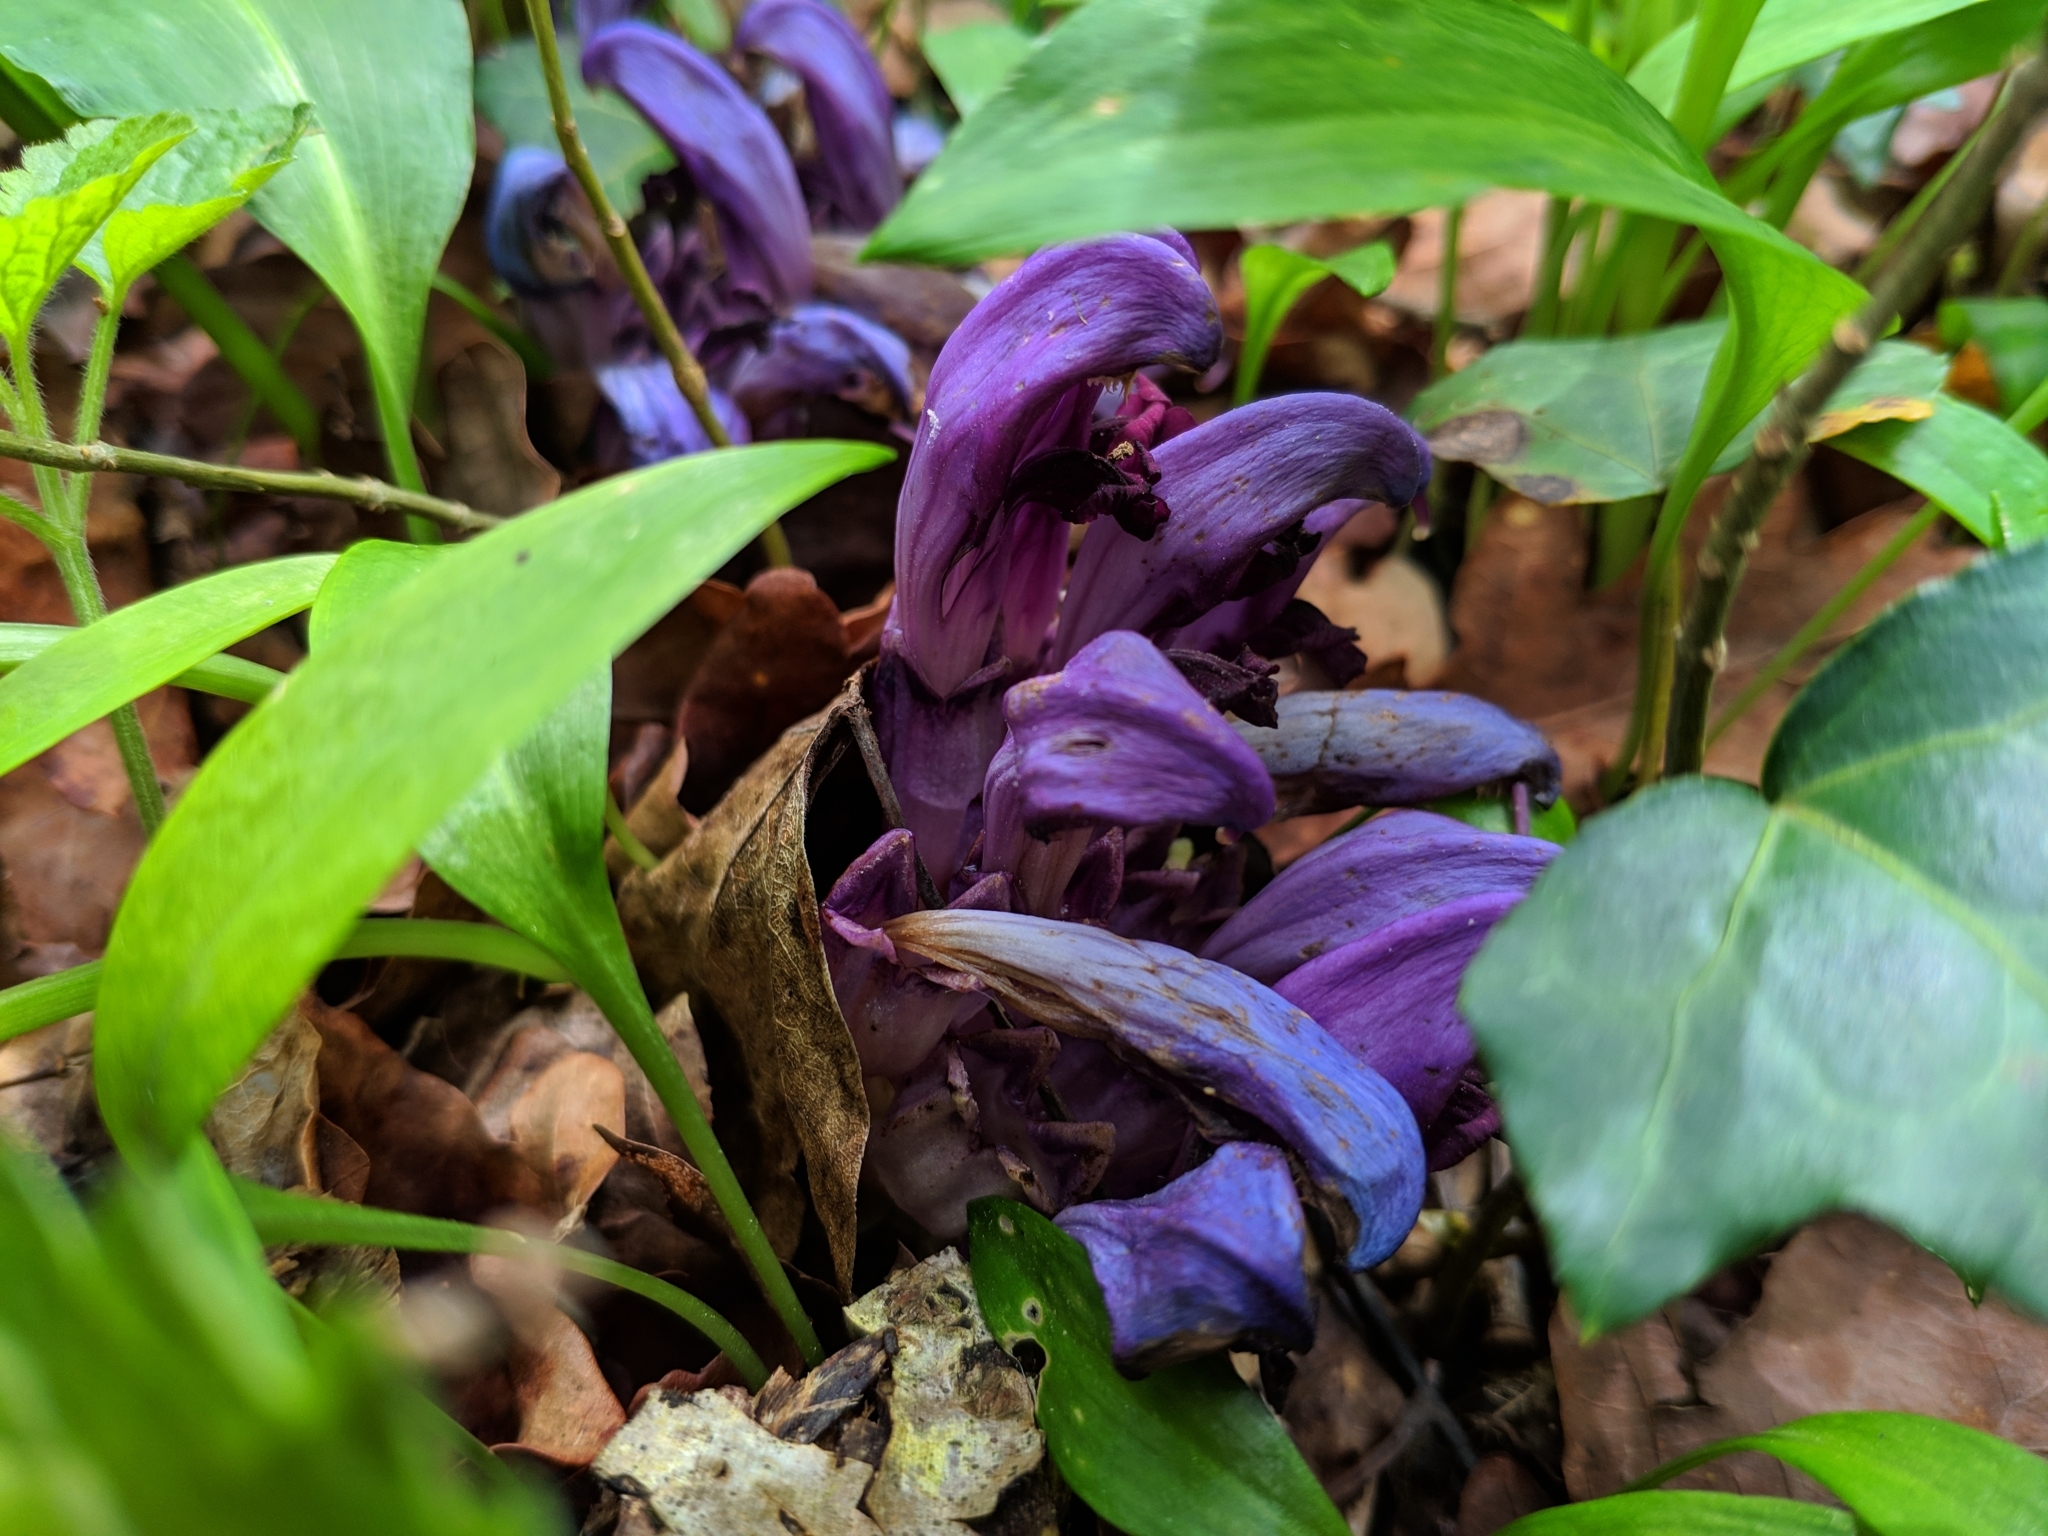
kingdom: Plantae
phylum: Tracheophyta
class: Magnoliopsida
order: Lamiales
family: Orobanchaceae
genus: Lathraea
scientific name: Lathraea clandestina
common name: Purple toothwort
